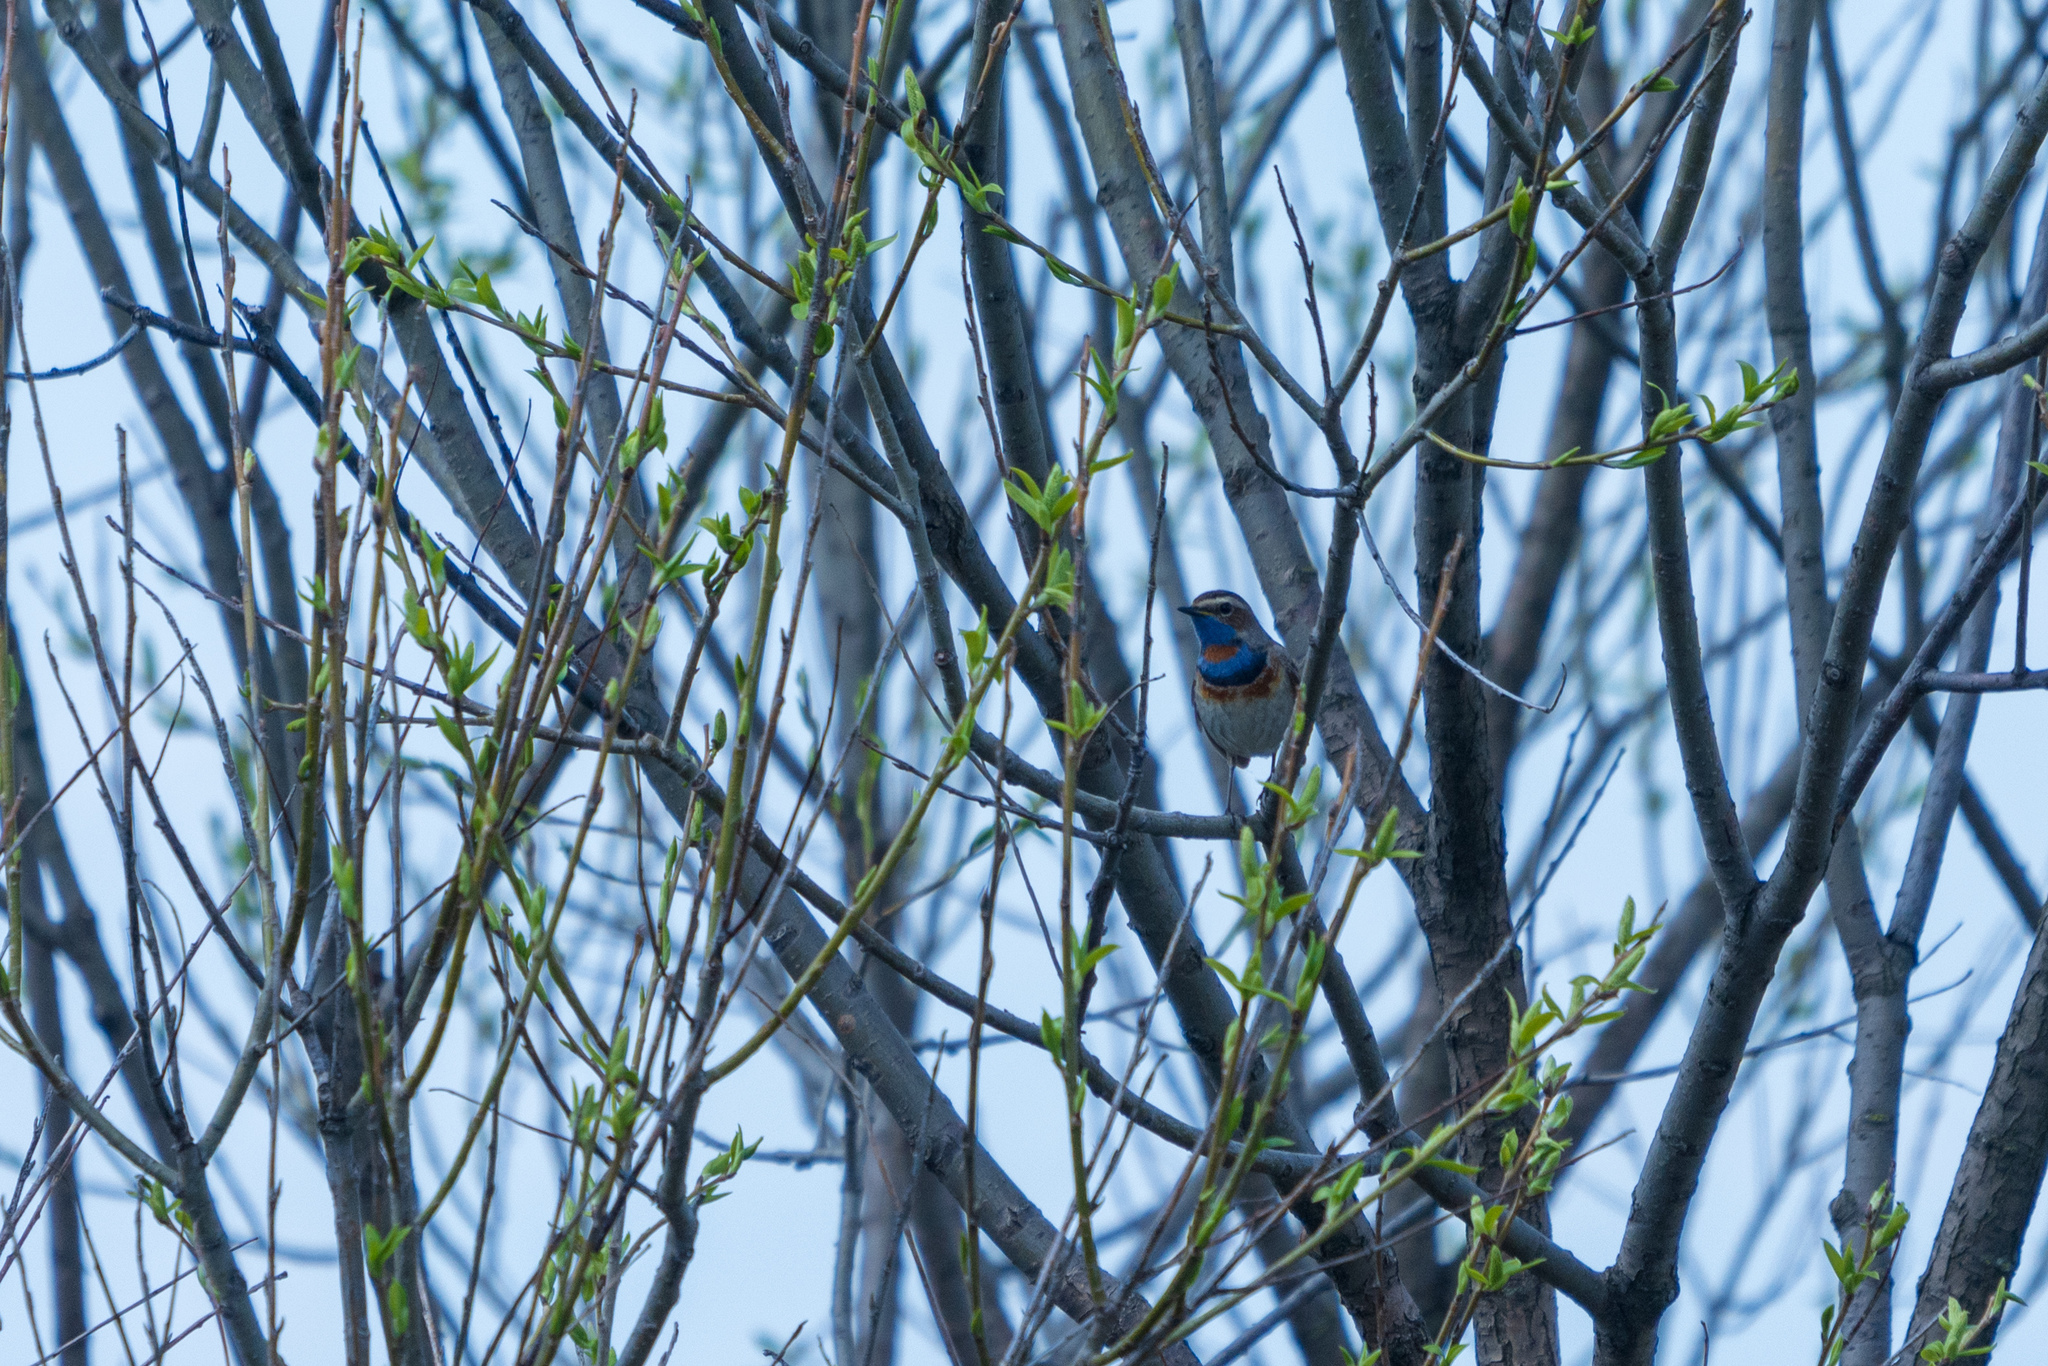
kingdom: Animalia
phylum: Chordata
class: Aves
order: Passeriformes
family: Muscicapidae
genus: Luscinia
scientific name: Luscinia svecica
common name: Bluethroat
